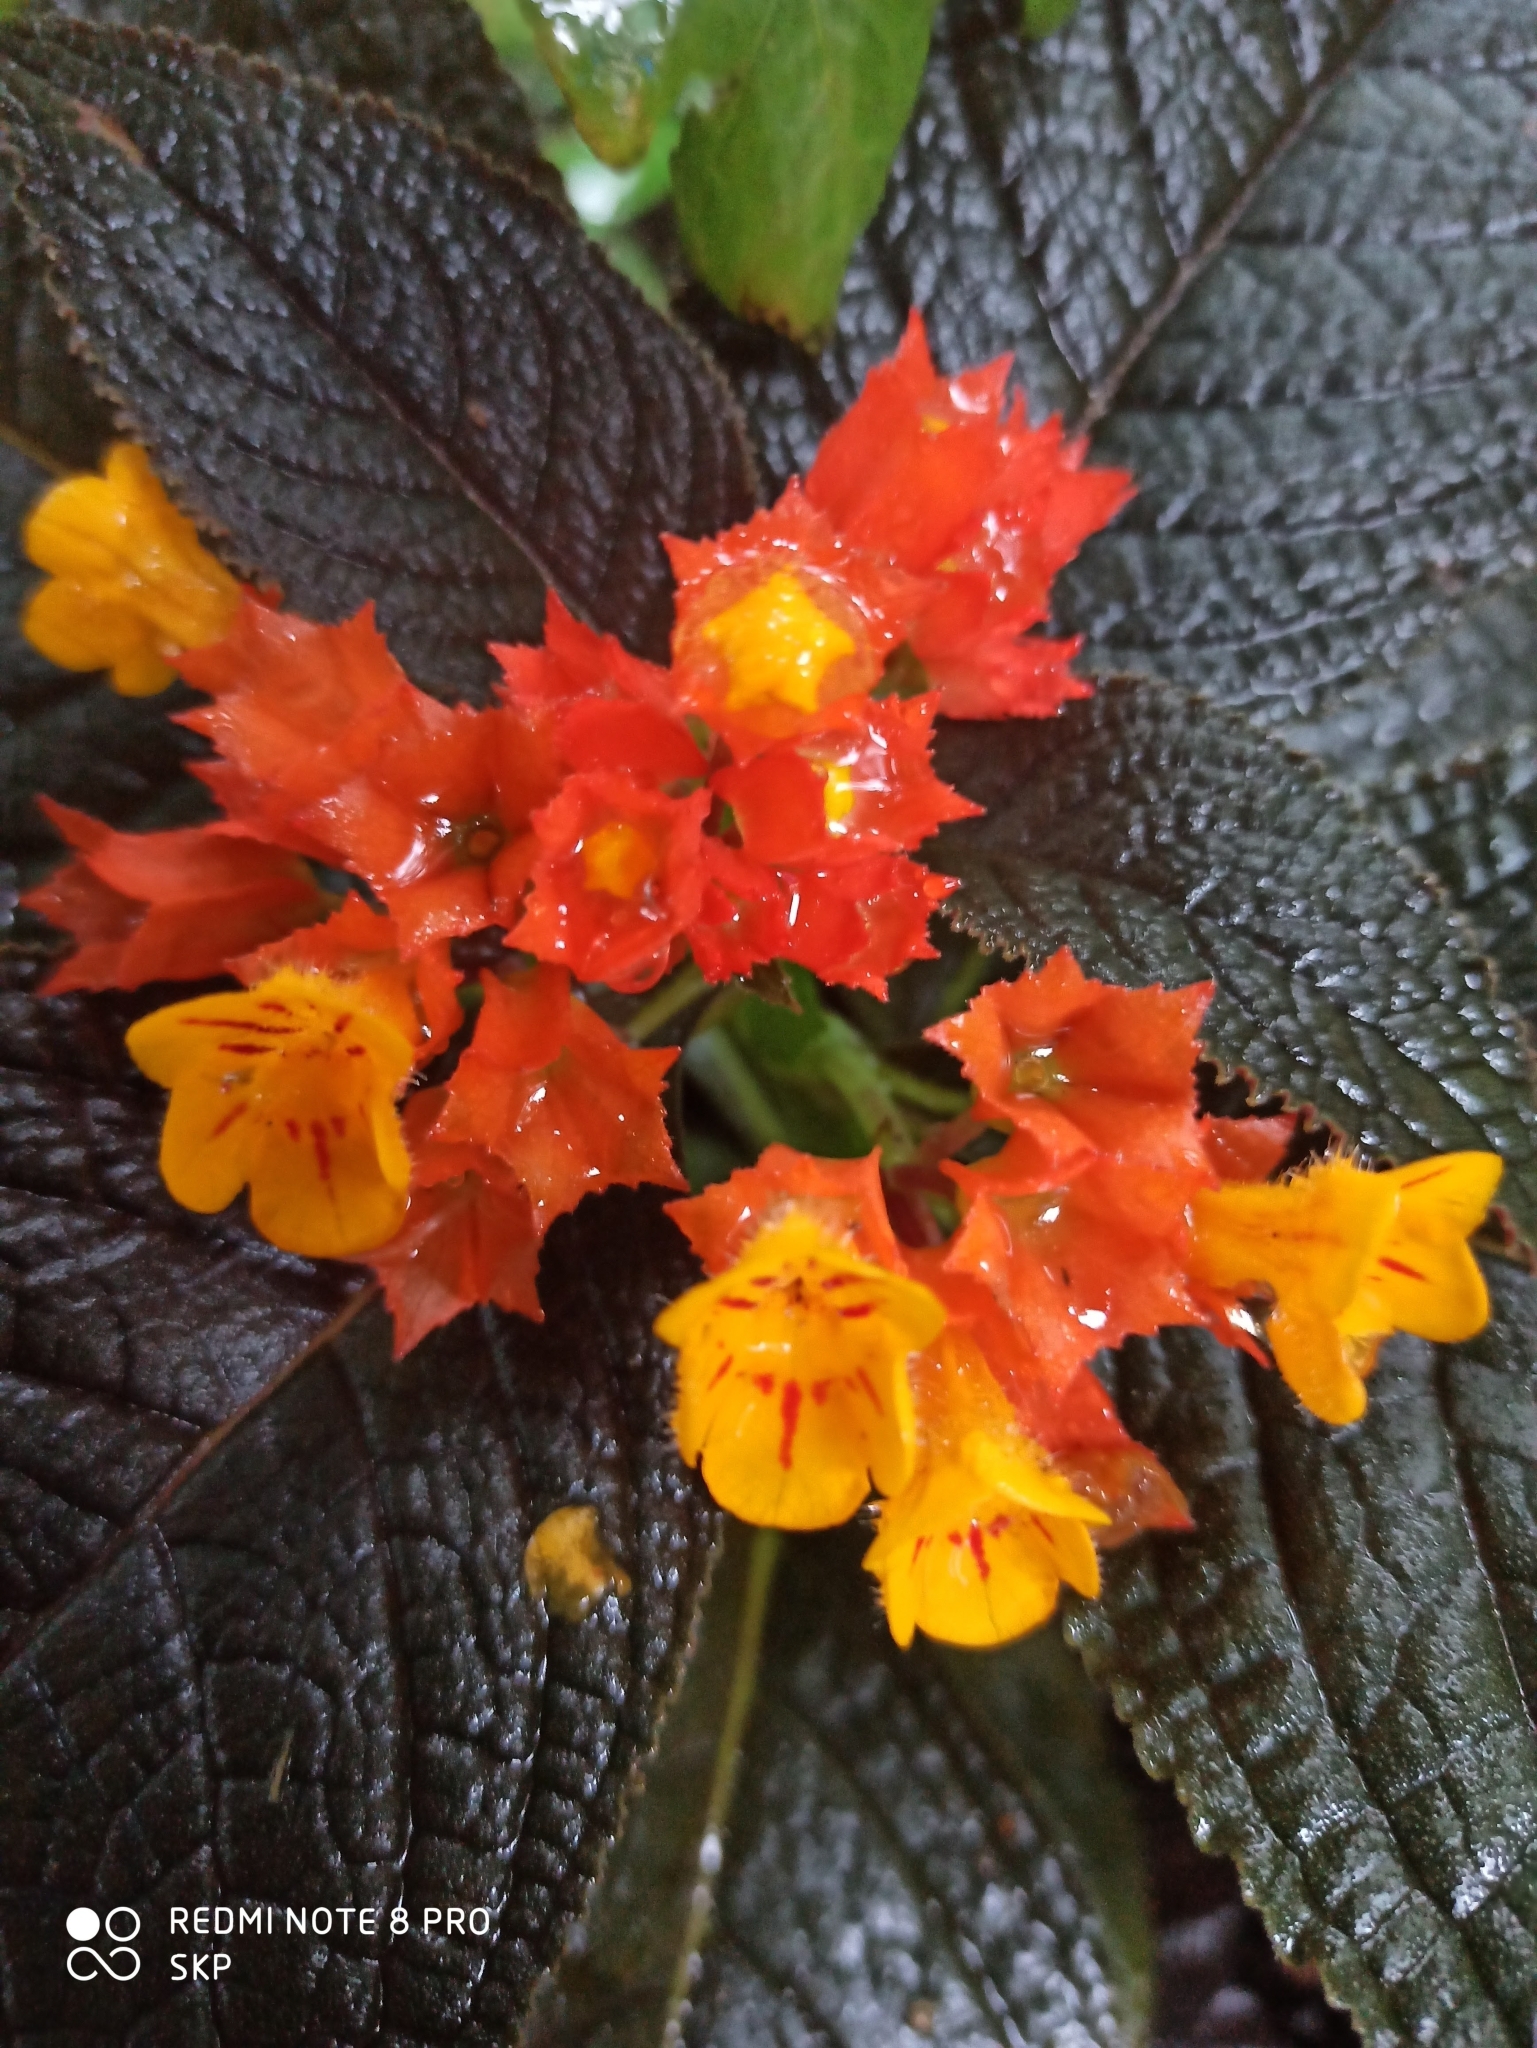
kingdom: Plantae
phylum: Tracheophyta
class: Magnoliopsida
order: Lamiales
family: Gesneriaceae
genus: Chrysothemis
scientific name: Chrysothemis pulchella
